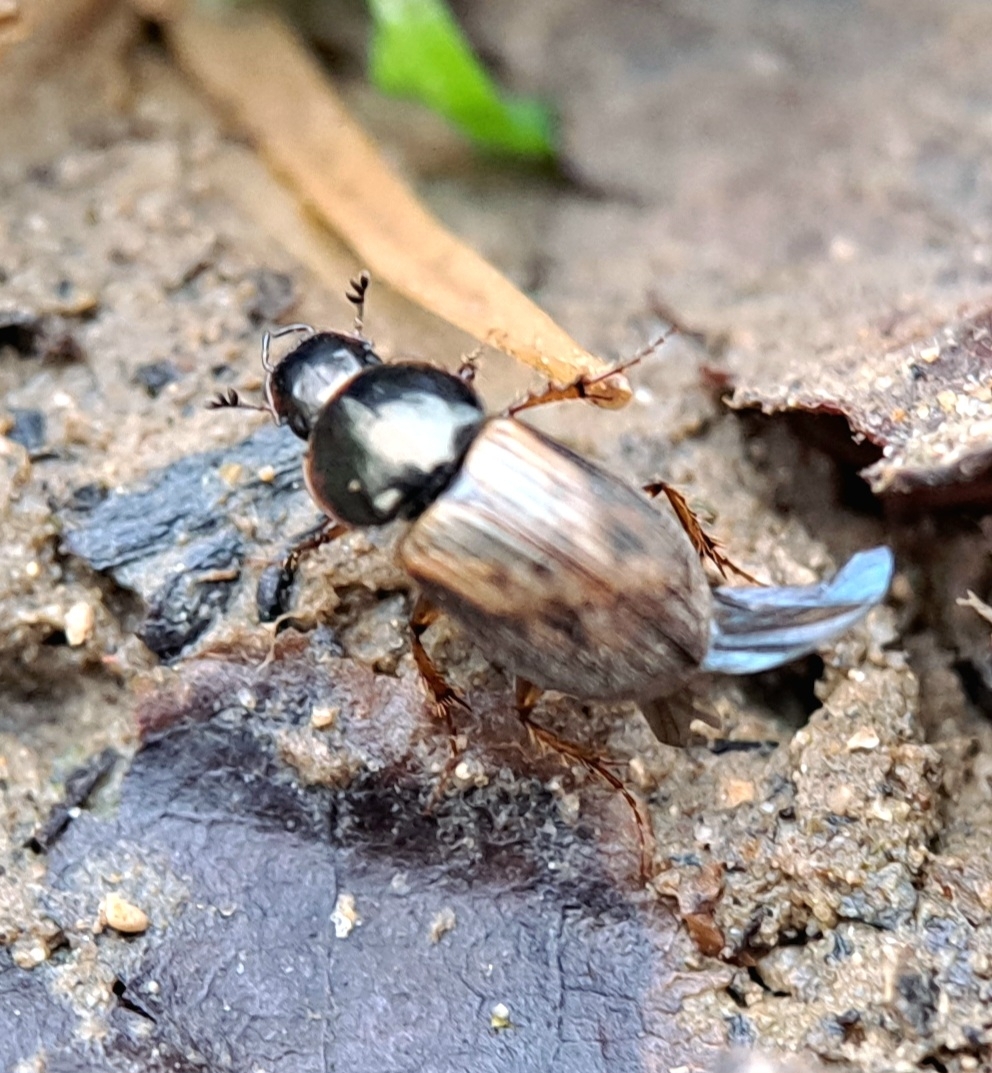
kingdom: Animalia
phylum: Arthropoda
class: Insecta
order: Coleoptera
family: Scarabaeidae
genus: Nimbus
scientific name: Nimbus contaminatus
